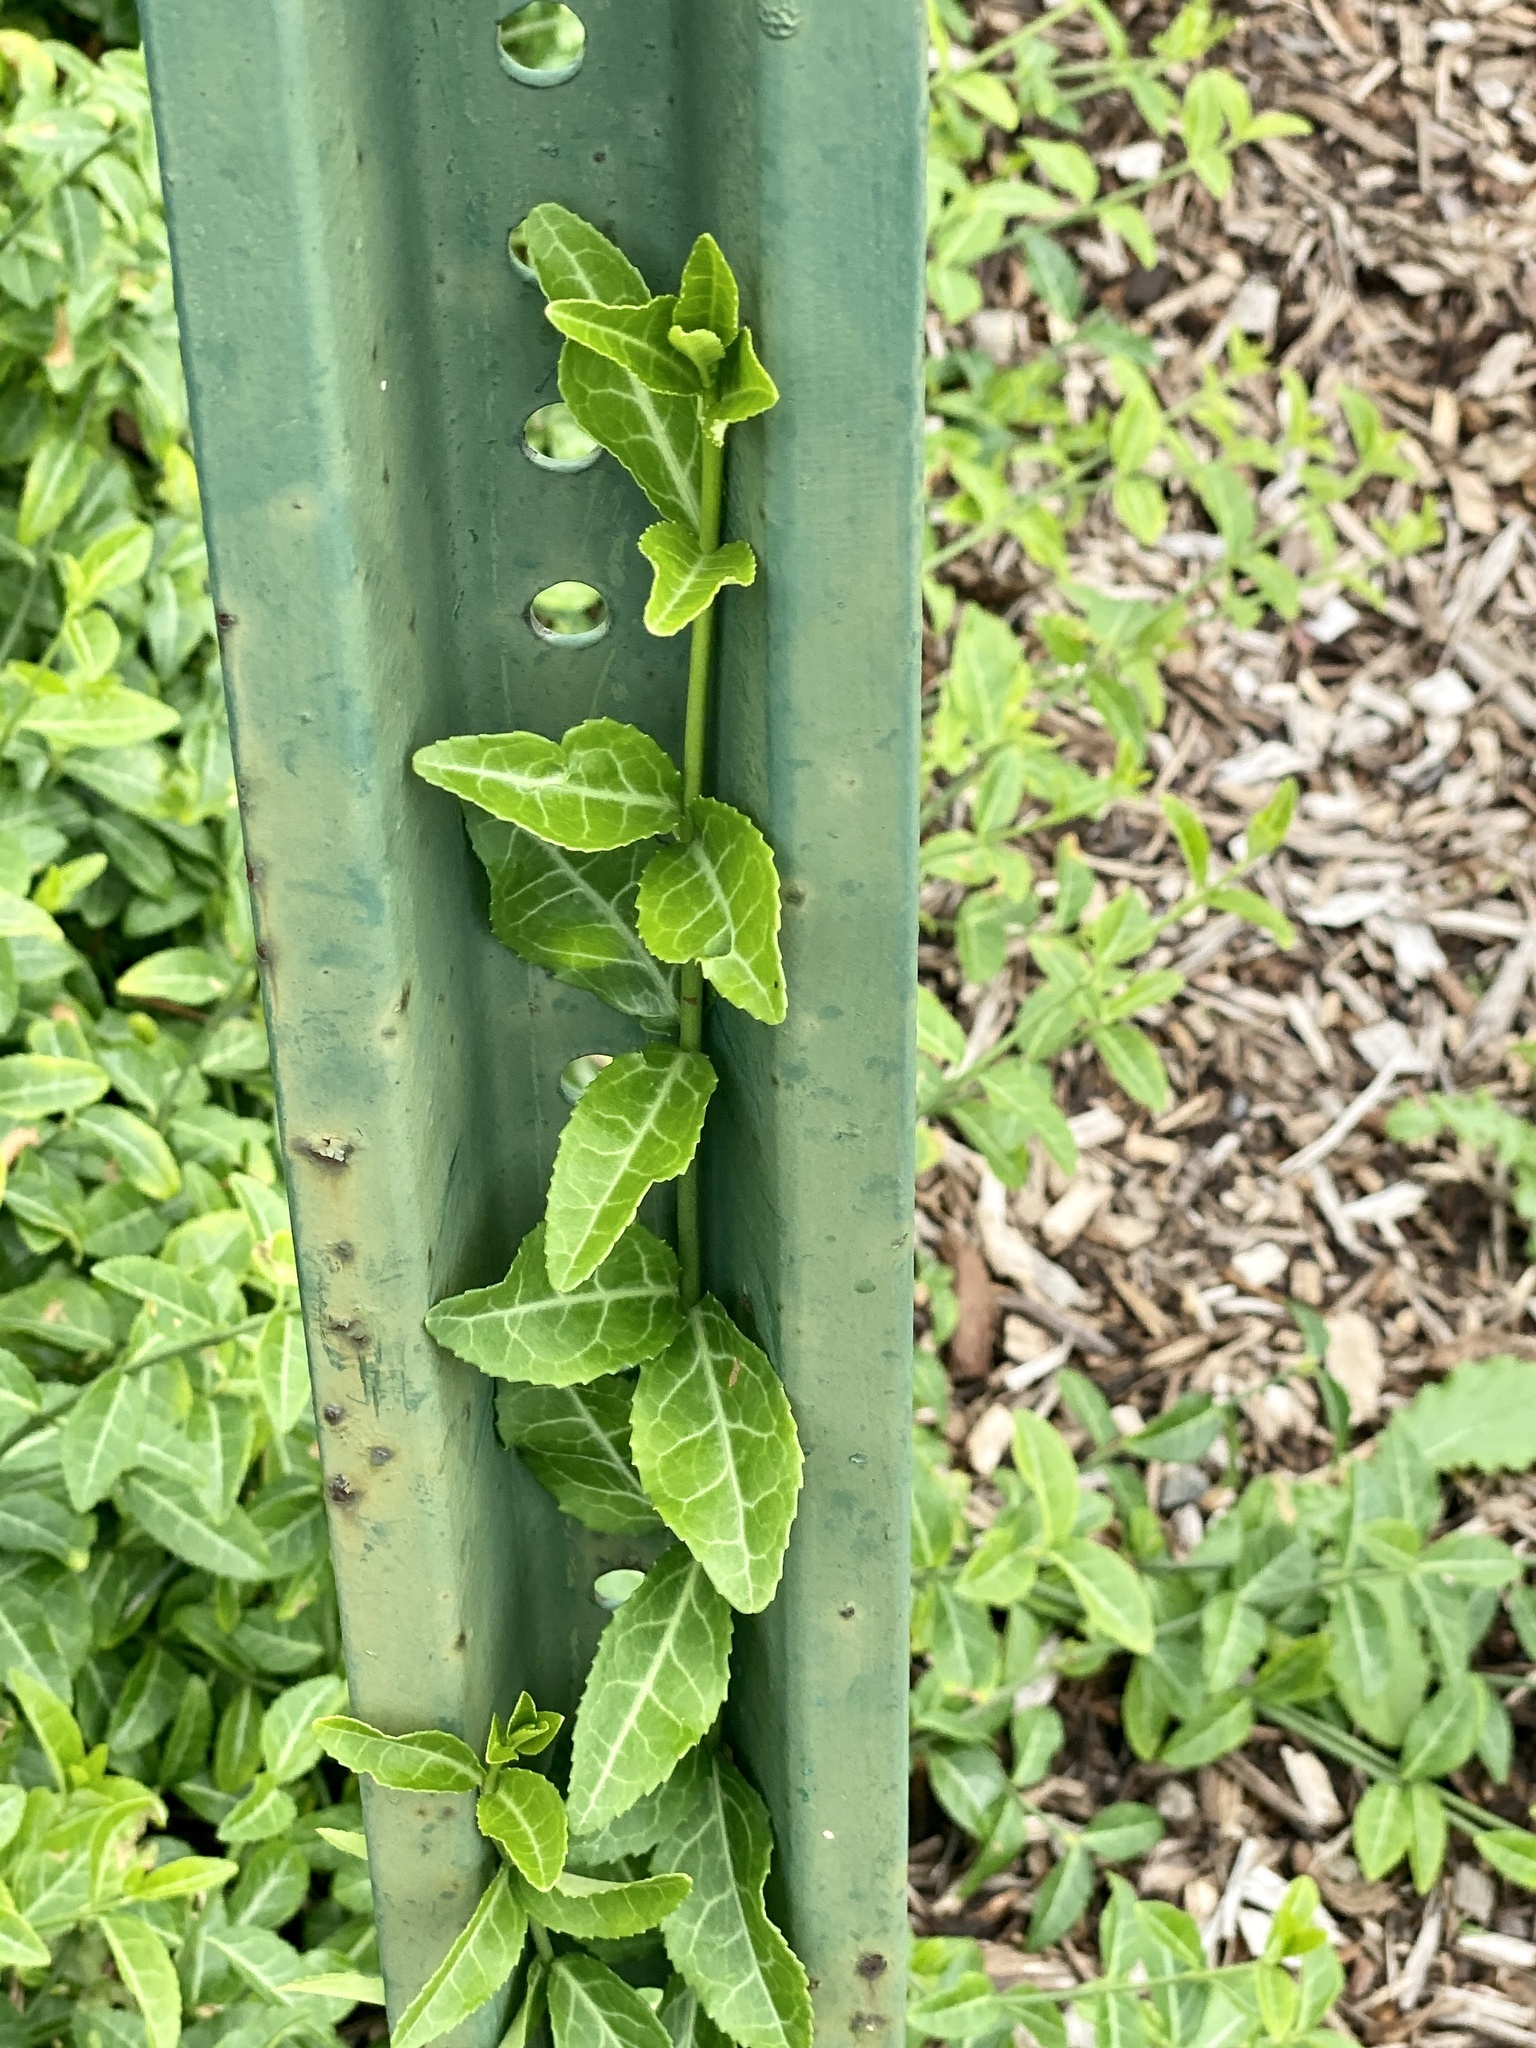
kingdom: Plantae
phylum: Tracheophyta
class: Magnoliopsida
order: Celastrales
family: Celastraceae
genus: Euonymus
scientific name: Euonymus fortunei
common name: Climbing euonymus
